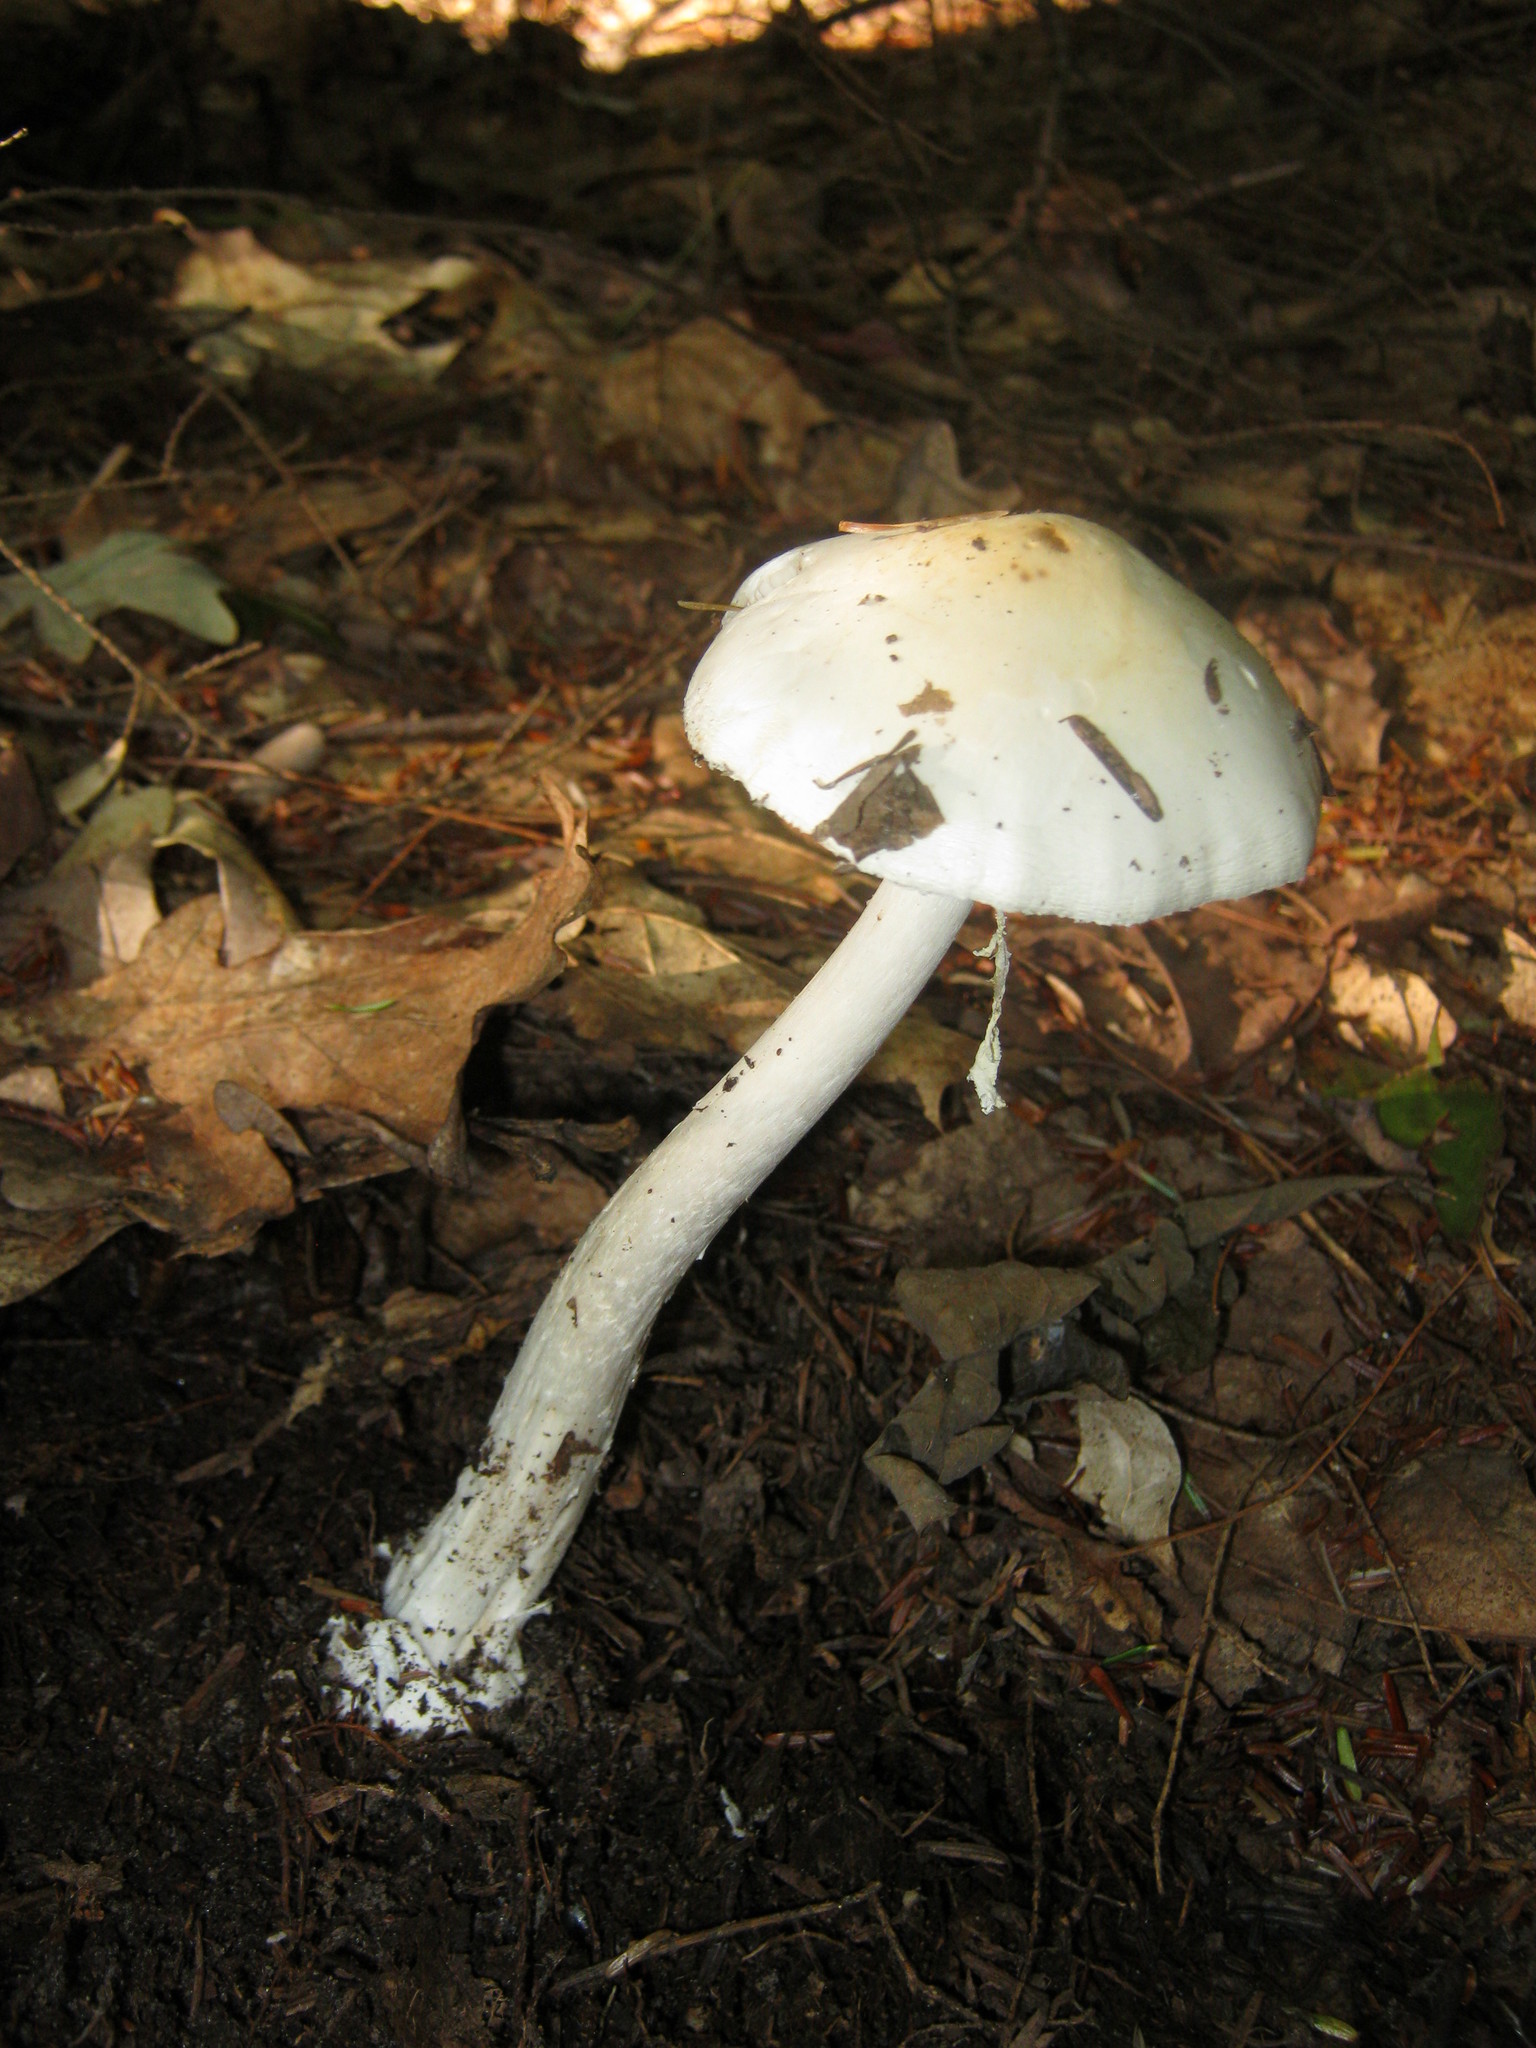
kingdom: Fungi
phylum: Basidiomycota
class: Agaricomycetes
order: Agaricales
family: Amanitaceae
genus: Amanita
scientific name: Amanita bisporigera
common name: Eastern north american destroying angel
